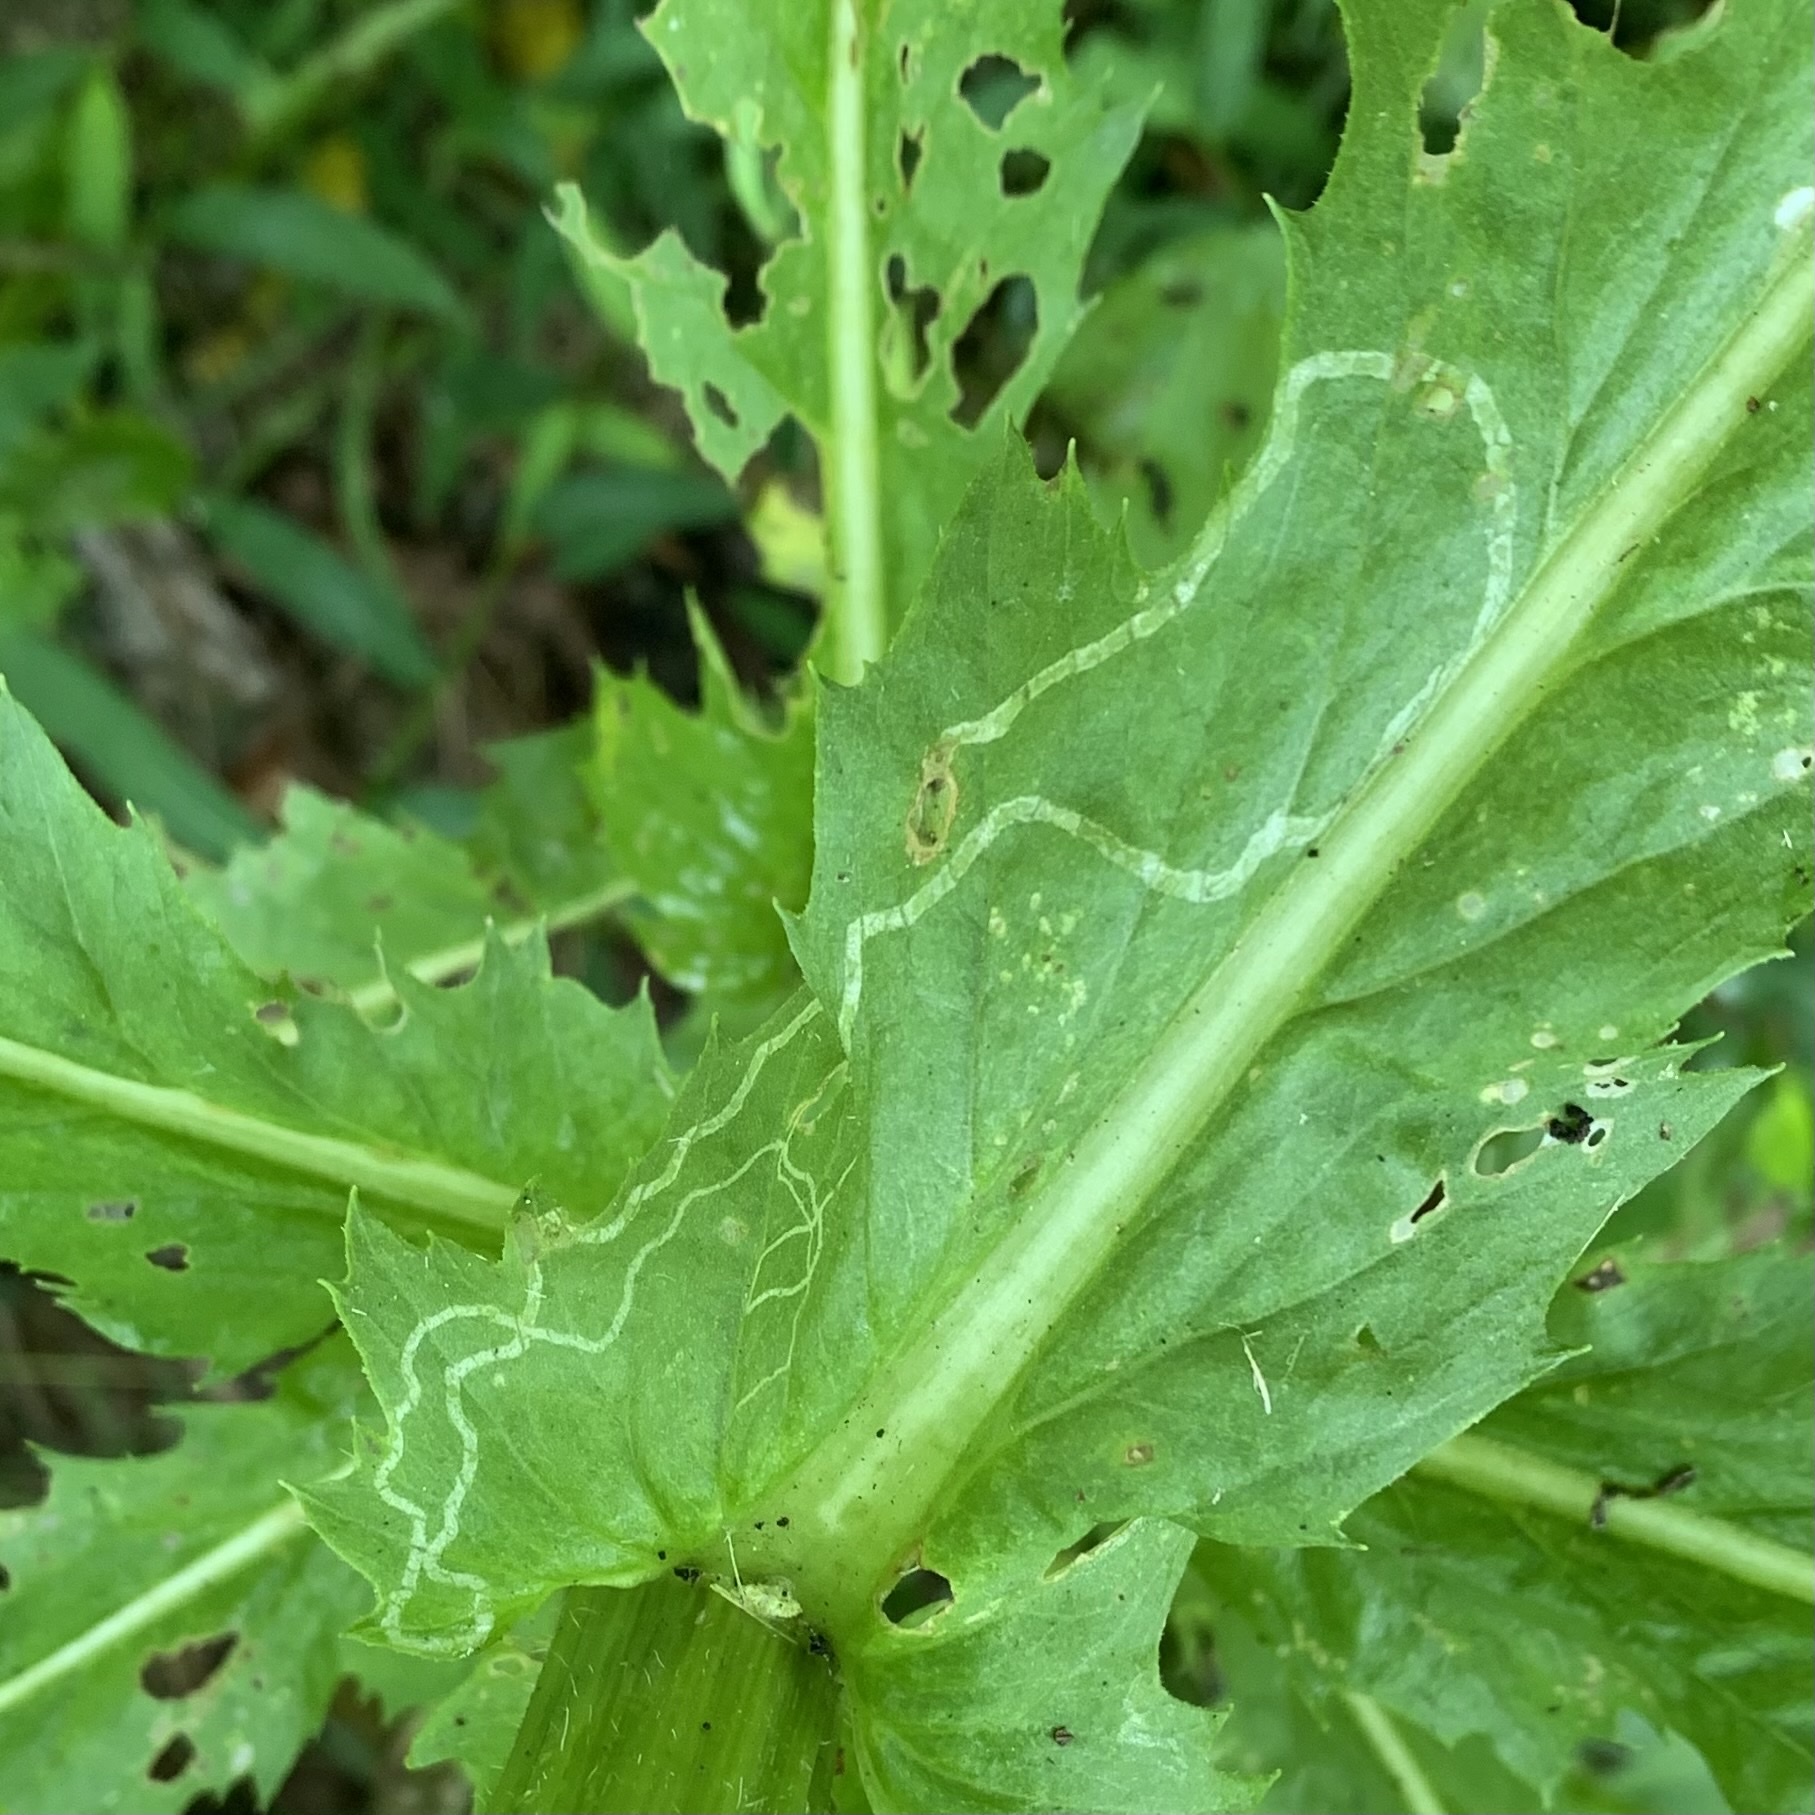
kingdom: Animalia
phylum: Arthropoda
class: Insecta
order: Lepidoptera
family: Gracillariidae
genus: Phyllocnistis
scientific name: Phyllocnistis insignis
